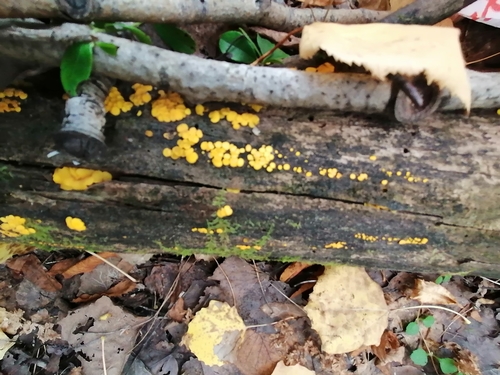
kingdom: Fungi
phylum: Ascomycota
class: Leotiomycetes
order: Helotiales
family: Pezizellaceae
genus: Calycina
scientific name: Calycina citrina
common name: Yellow fairy cups
